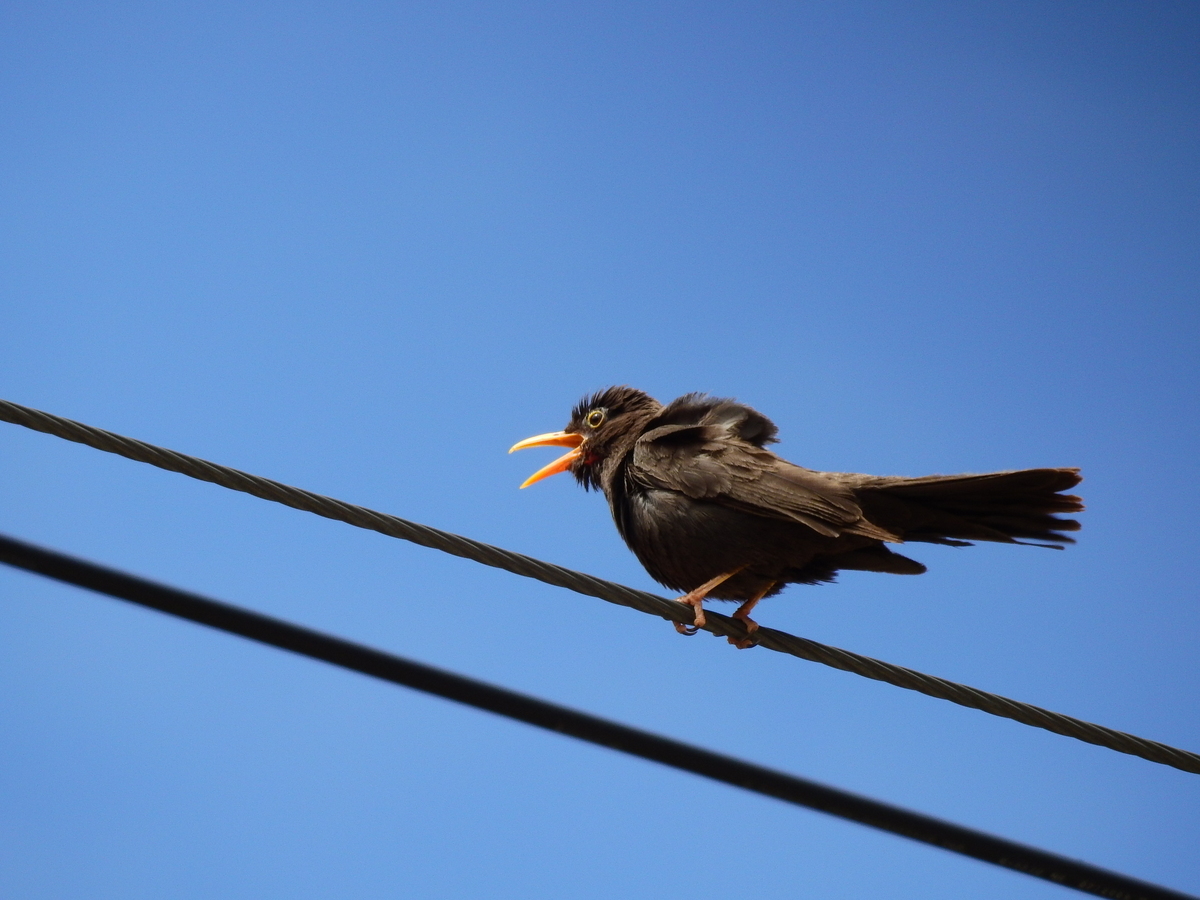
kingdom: Animalia
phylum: Chordata
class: Aves
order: Passeriformes
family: Turdidae
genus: Turdus
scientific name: Turdus chiguanco
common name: Chiguanco thrush
